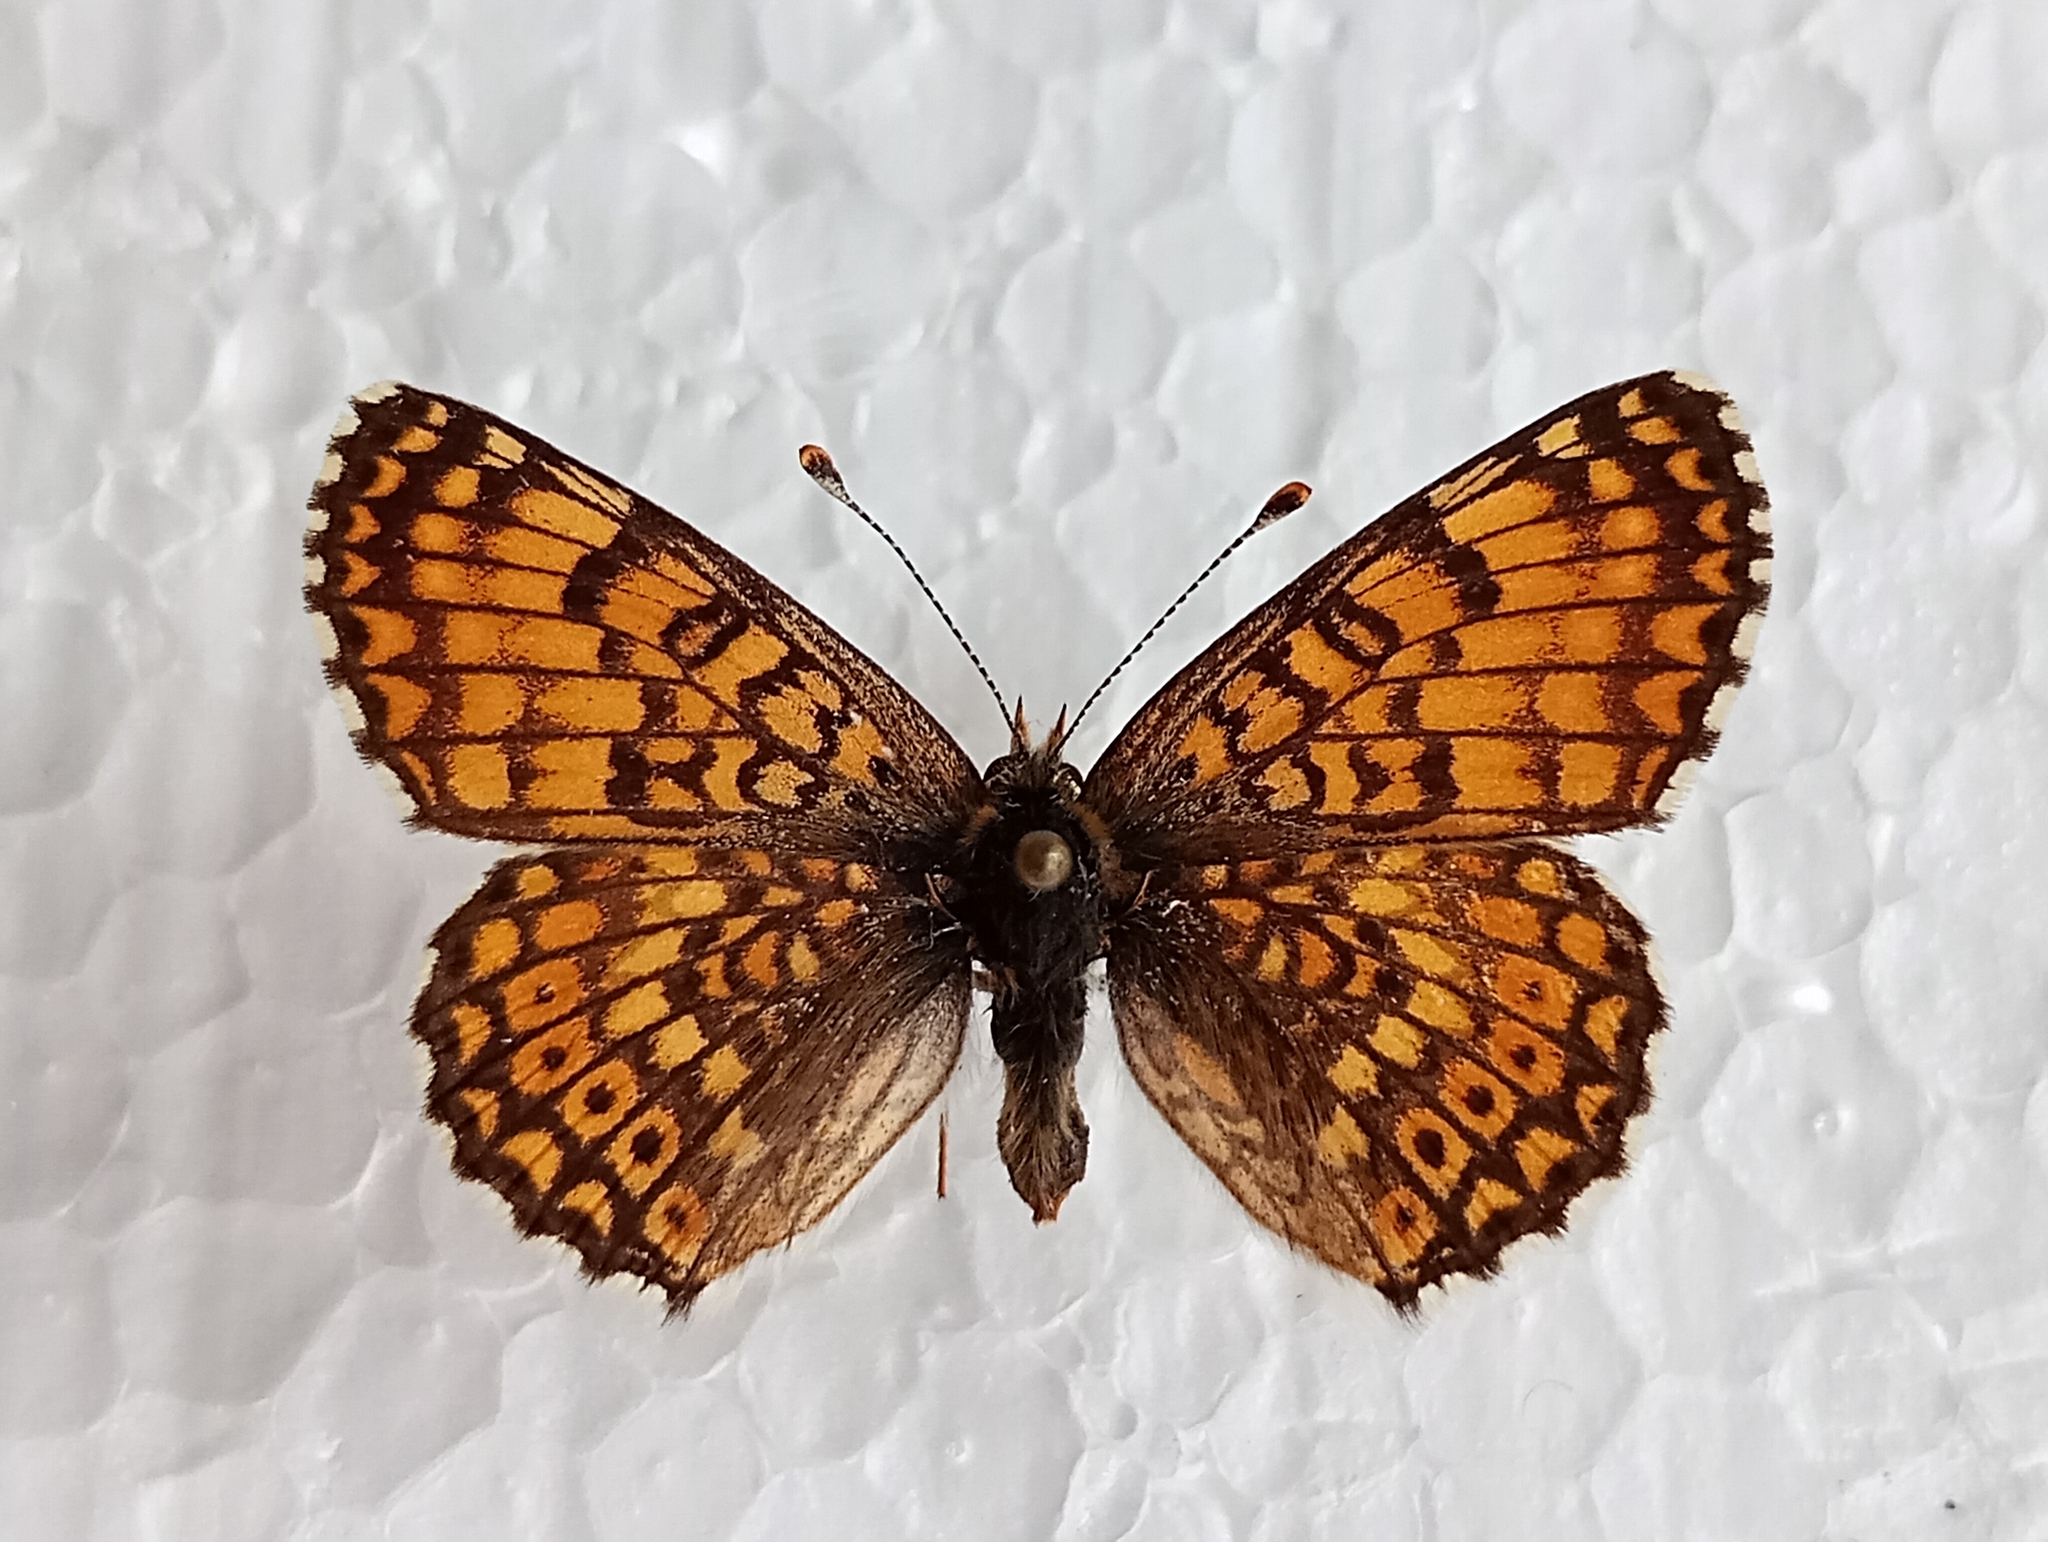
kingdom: Animalia
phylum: Arthropoda
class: Insecta
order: Lepidoptera
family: Nymphalidae
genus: Melitaea
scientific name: Melitaea cinxia
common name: Glanville fritillary
